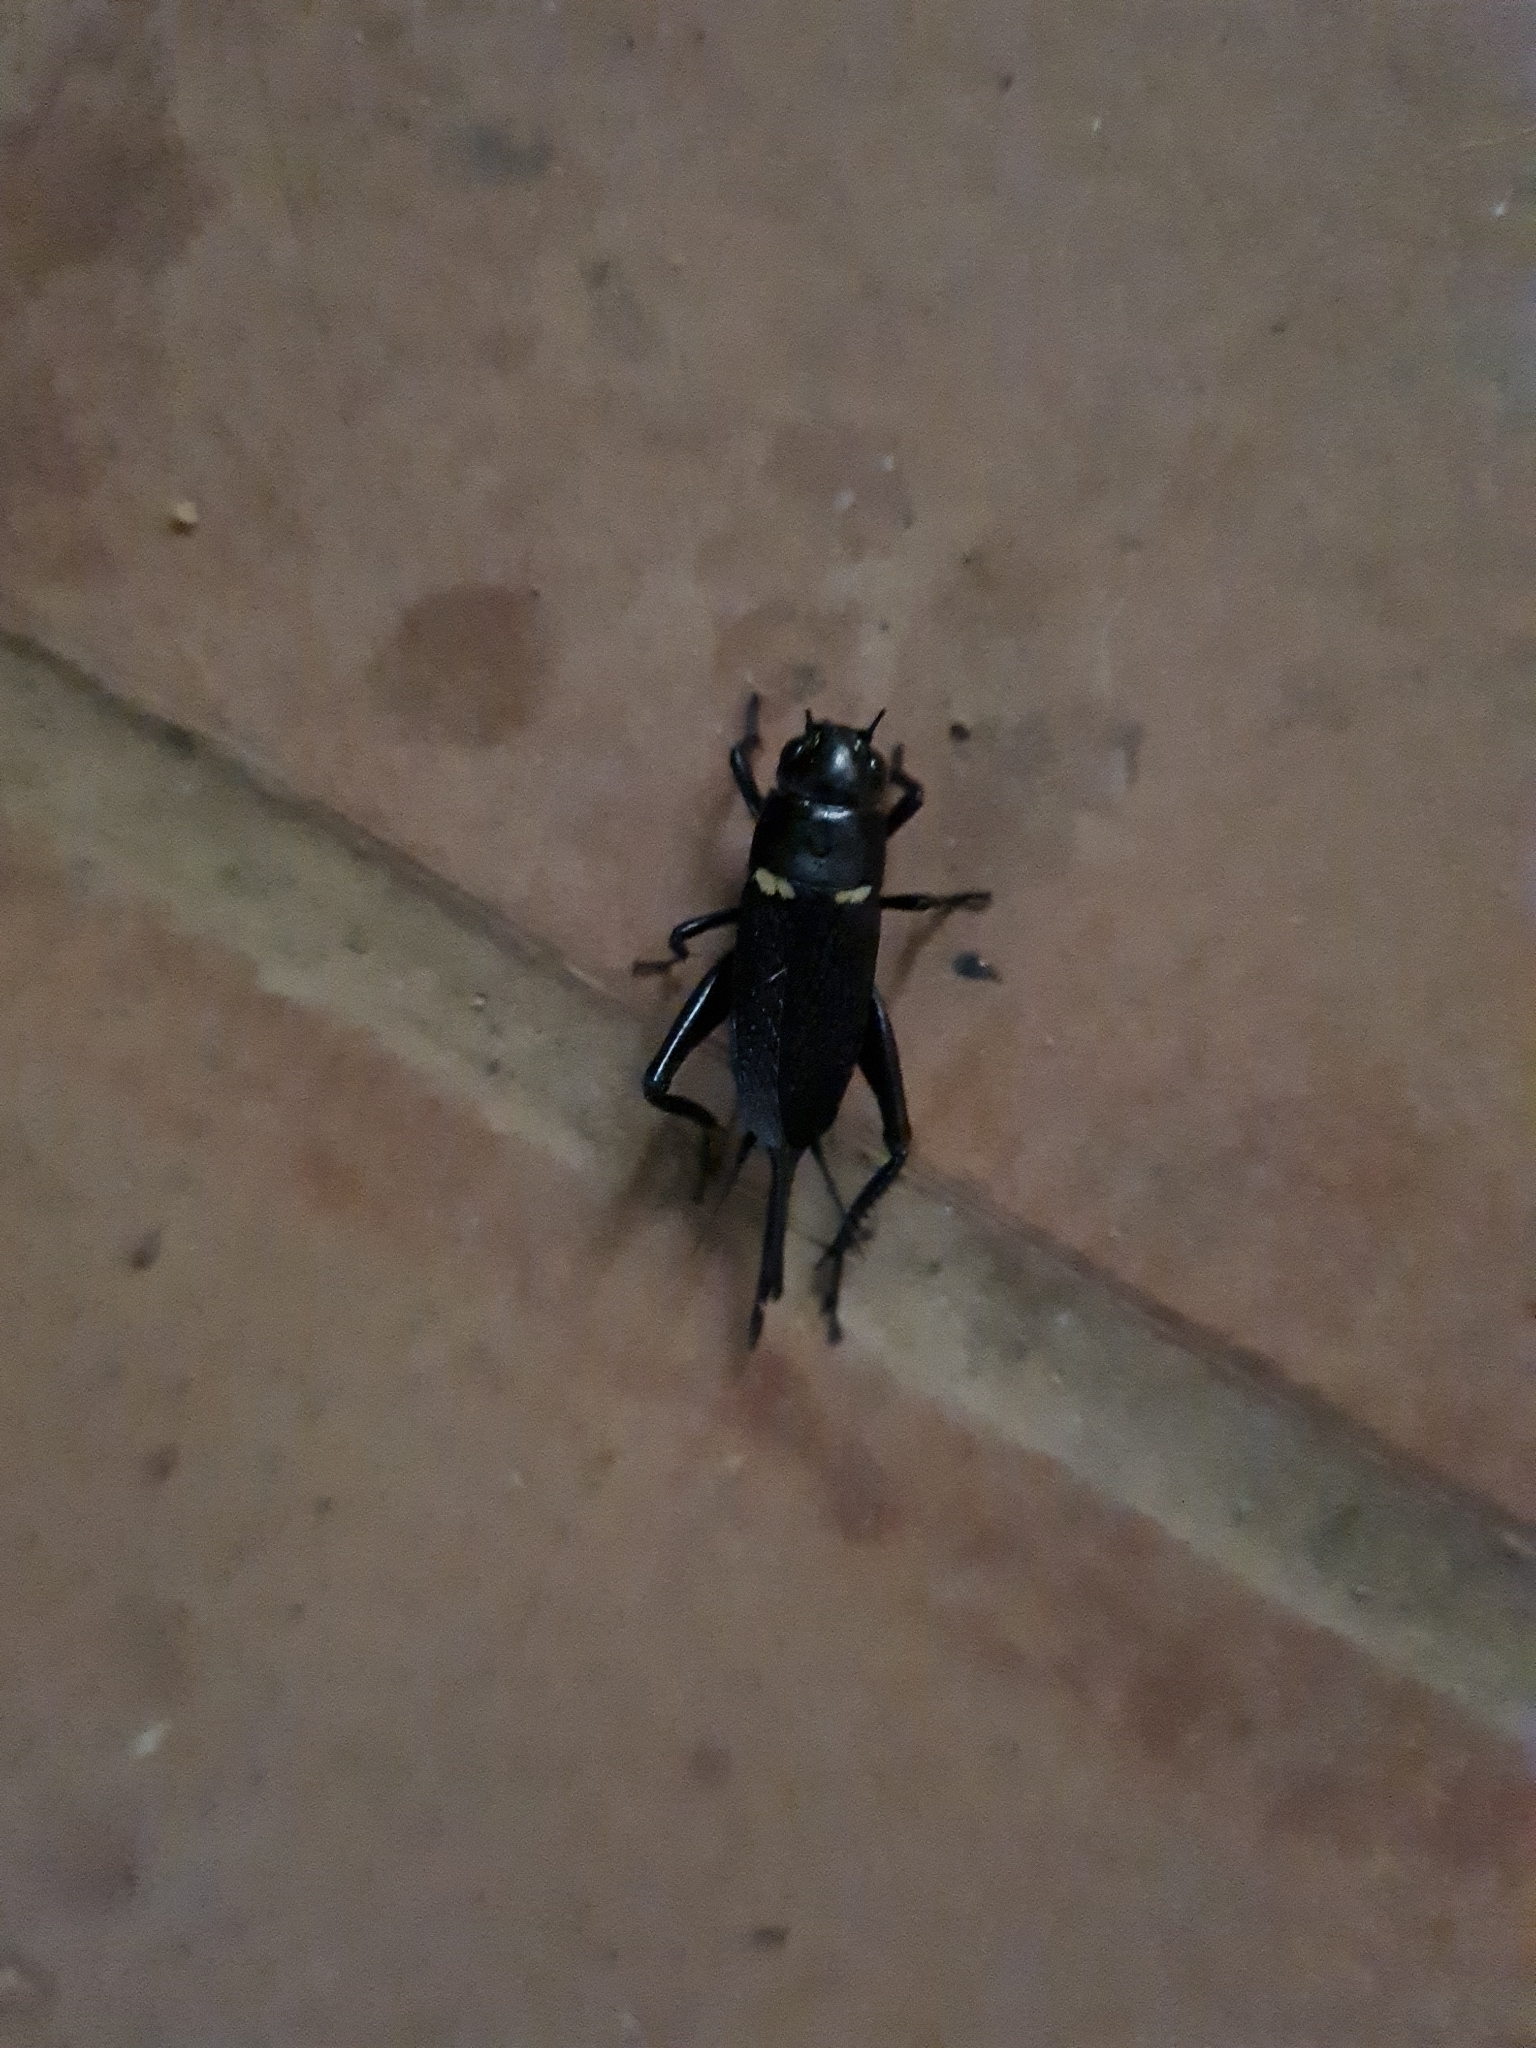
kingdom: Animalia
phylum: Arthropoda
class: Insecta
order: Orthoptera
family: Gryllidae
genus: Gryllus
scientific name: Gryllus bimaculatus
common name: Two-spotted cricket
